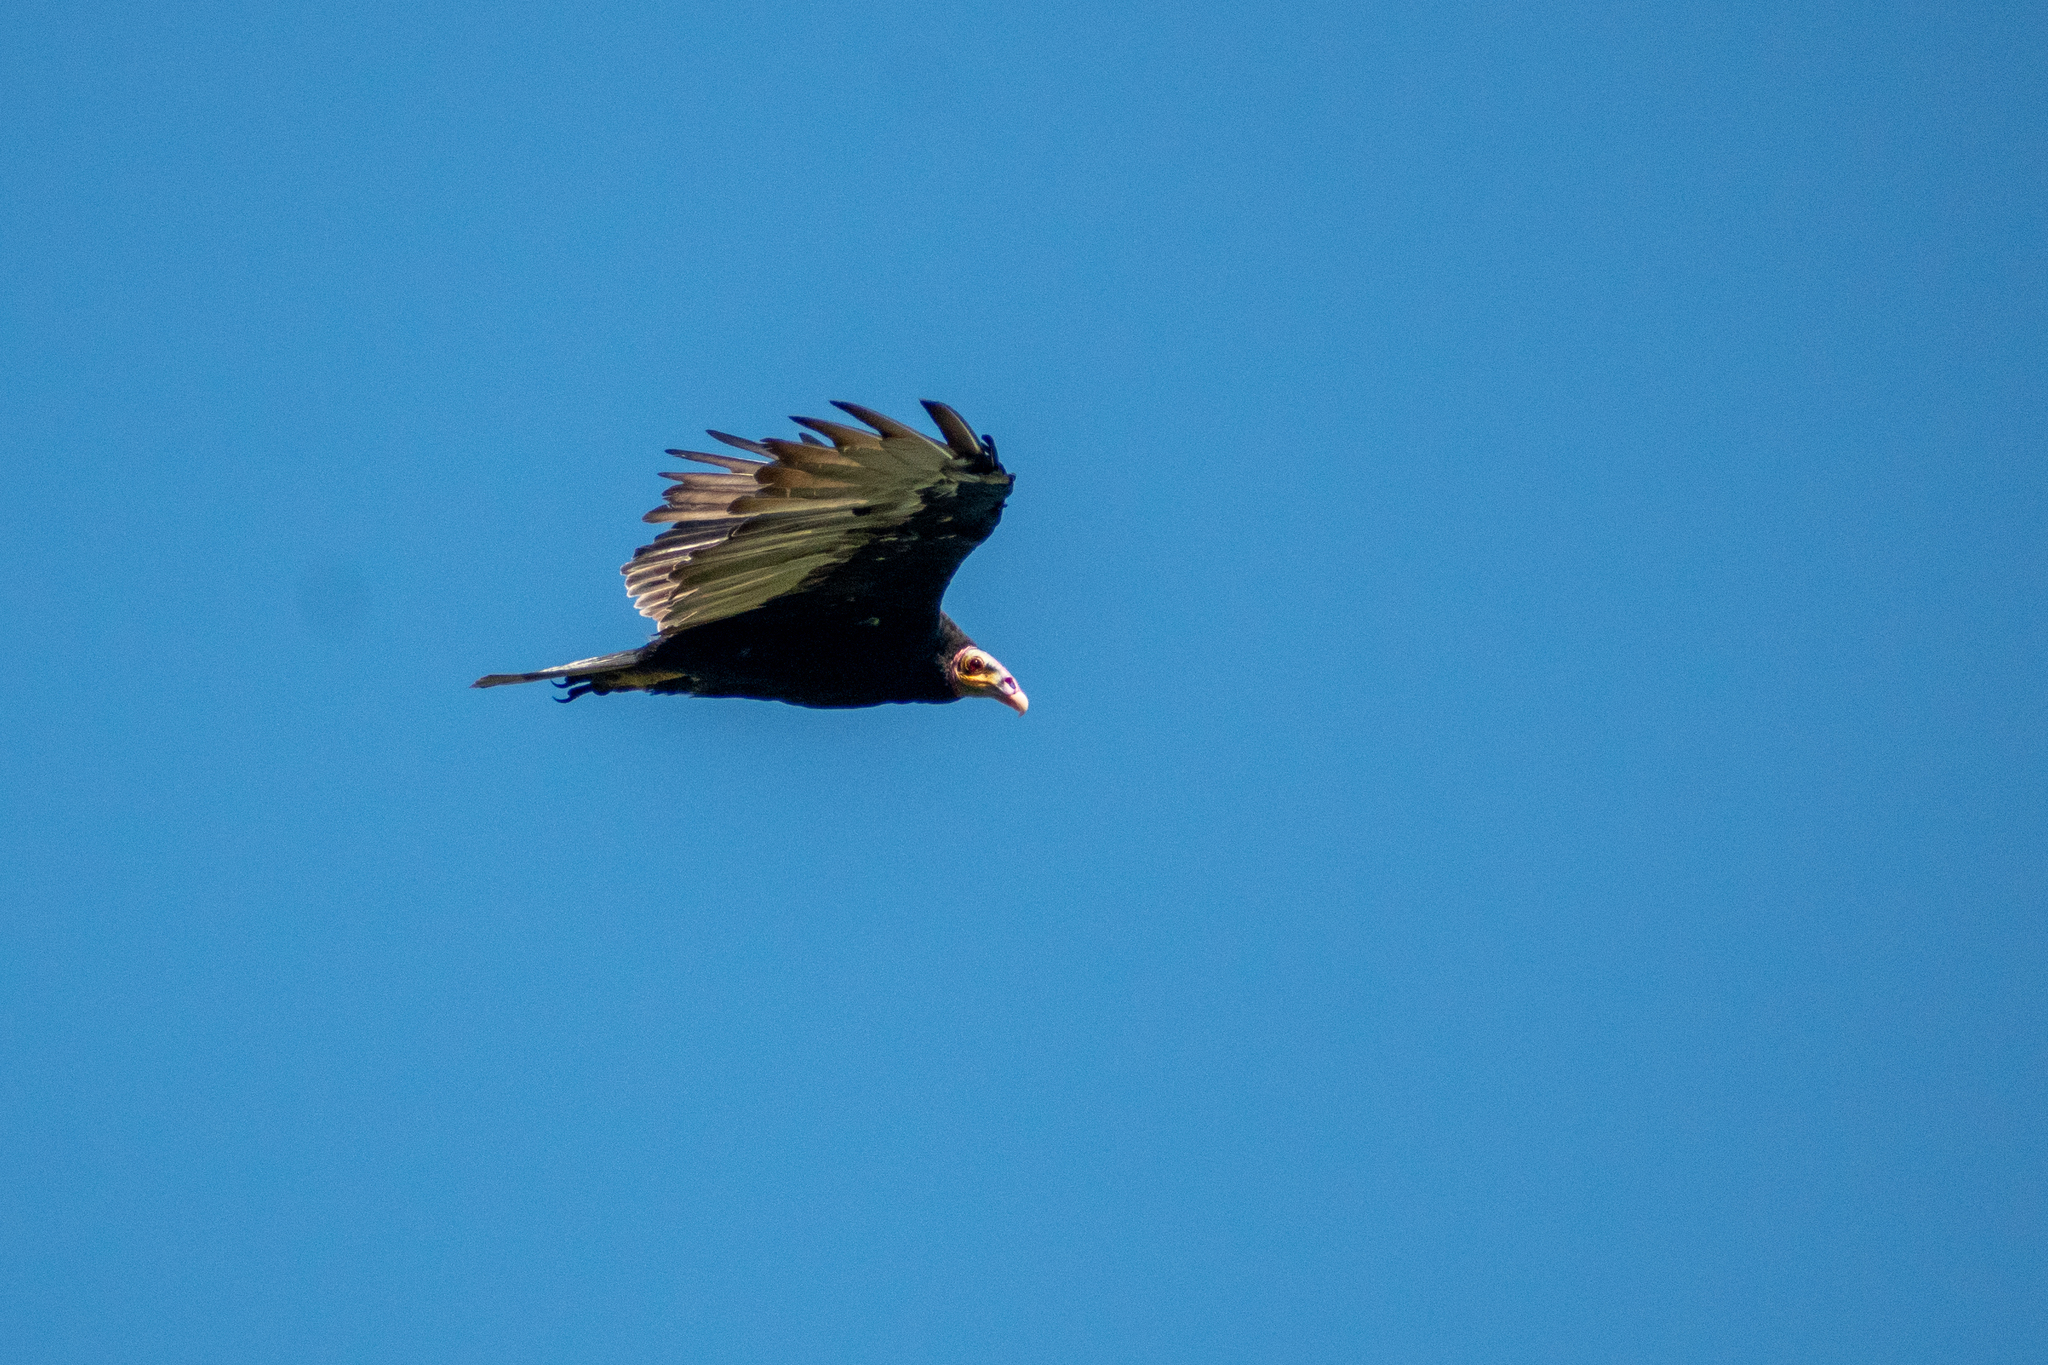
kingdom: Animalia
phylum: Chordata
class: Aves
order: Accipitriformes
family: Cathartidae
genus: Cathartes
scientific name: Cathartes burrovianus
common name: Lesser yellow-headed vulture
